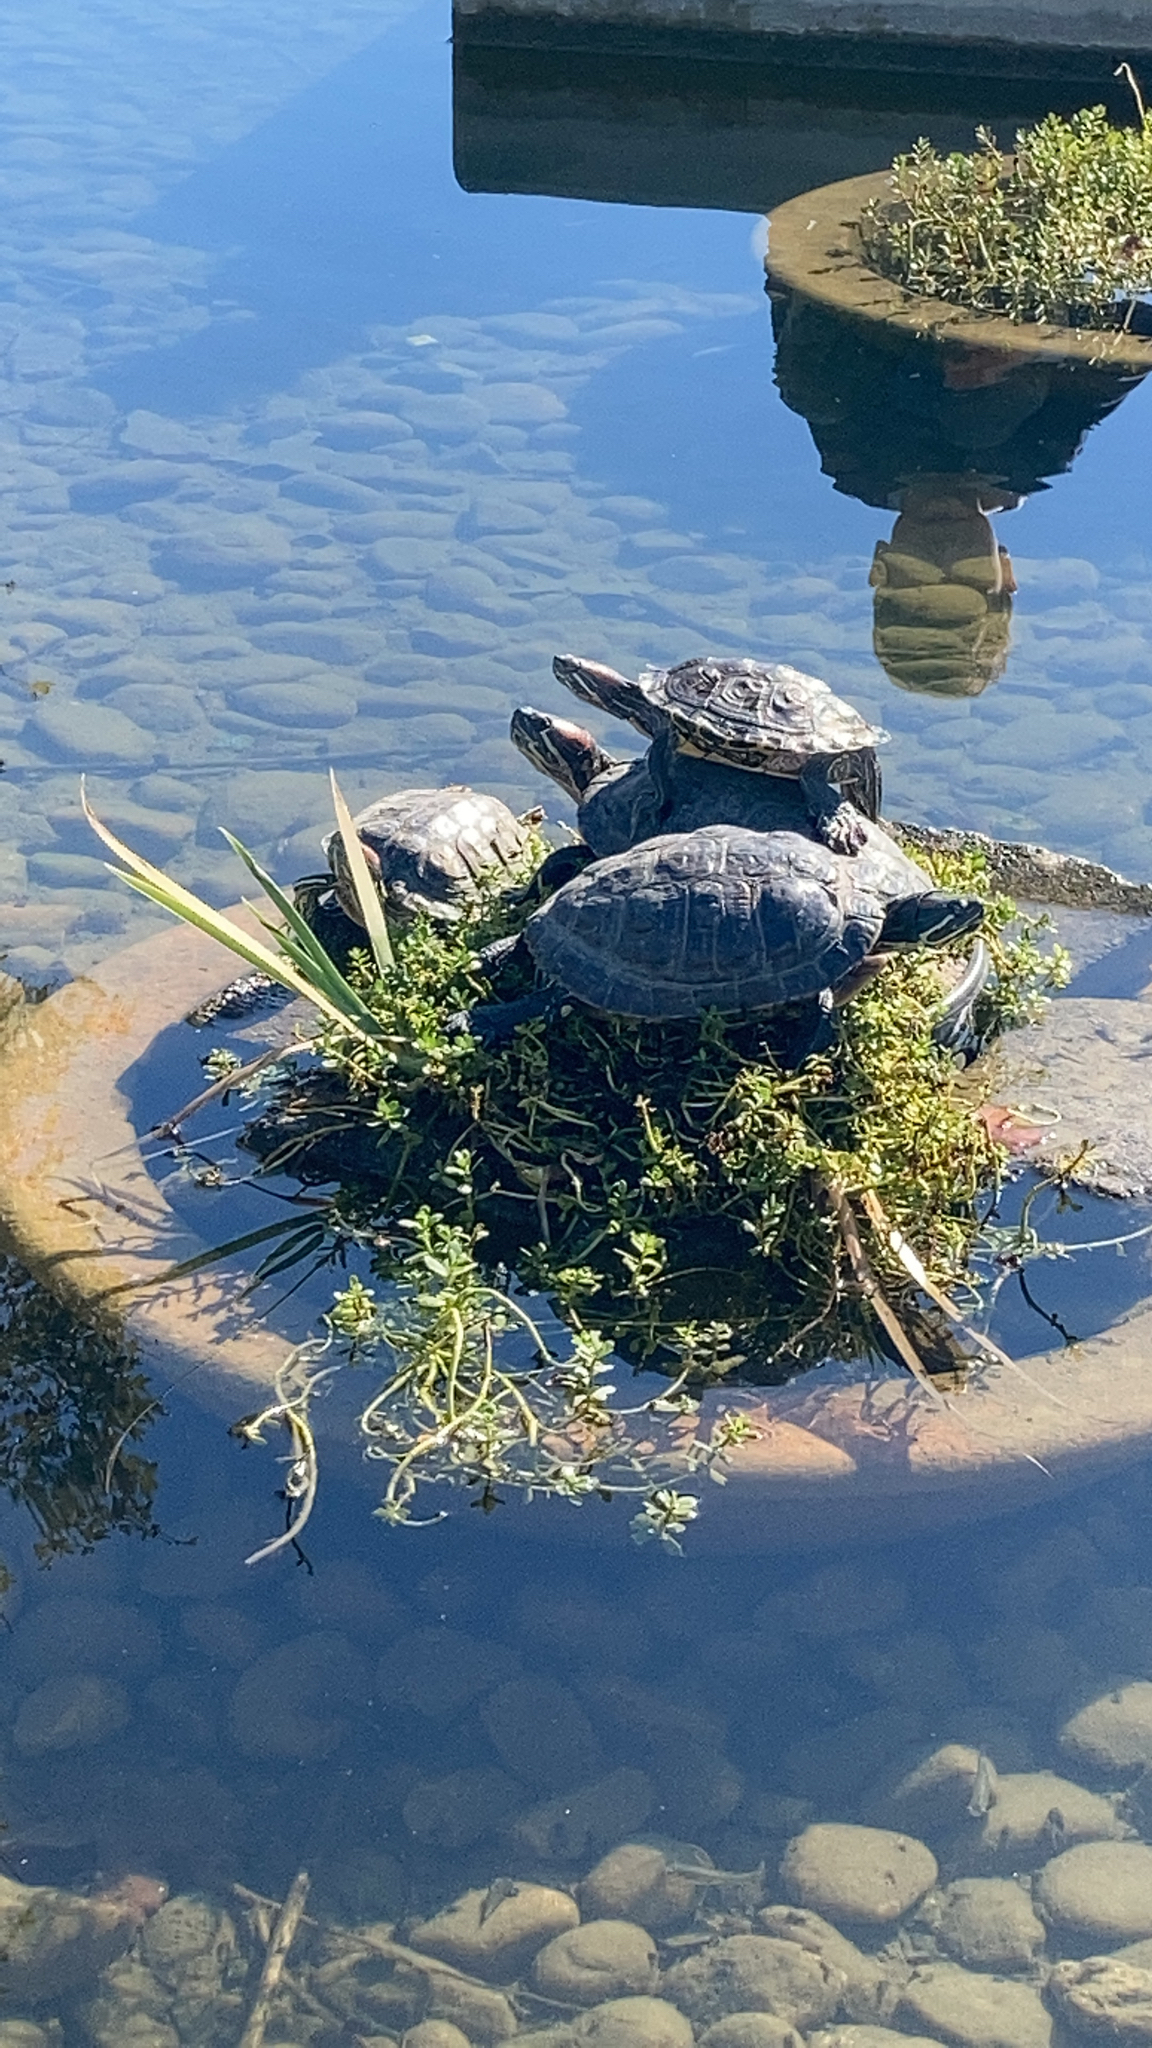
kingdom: Animalia
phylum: Chordata
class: Testudines
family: Emydidae
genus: Trachemys
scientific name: Trachemys scripta
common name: Slider
